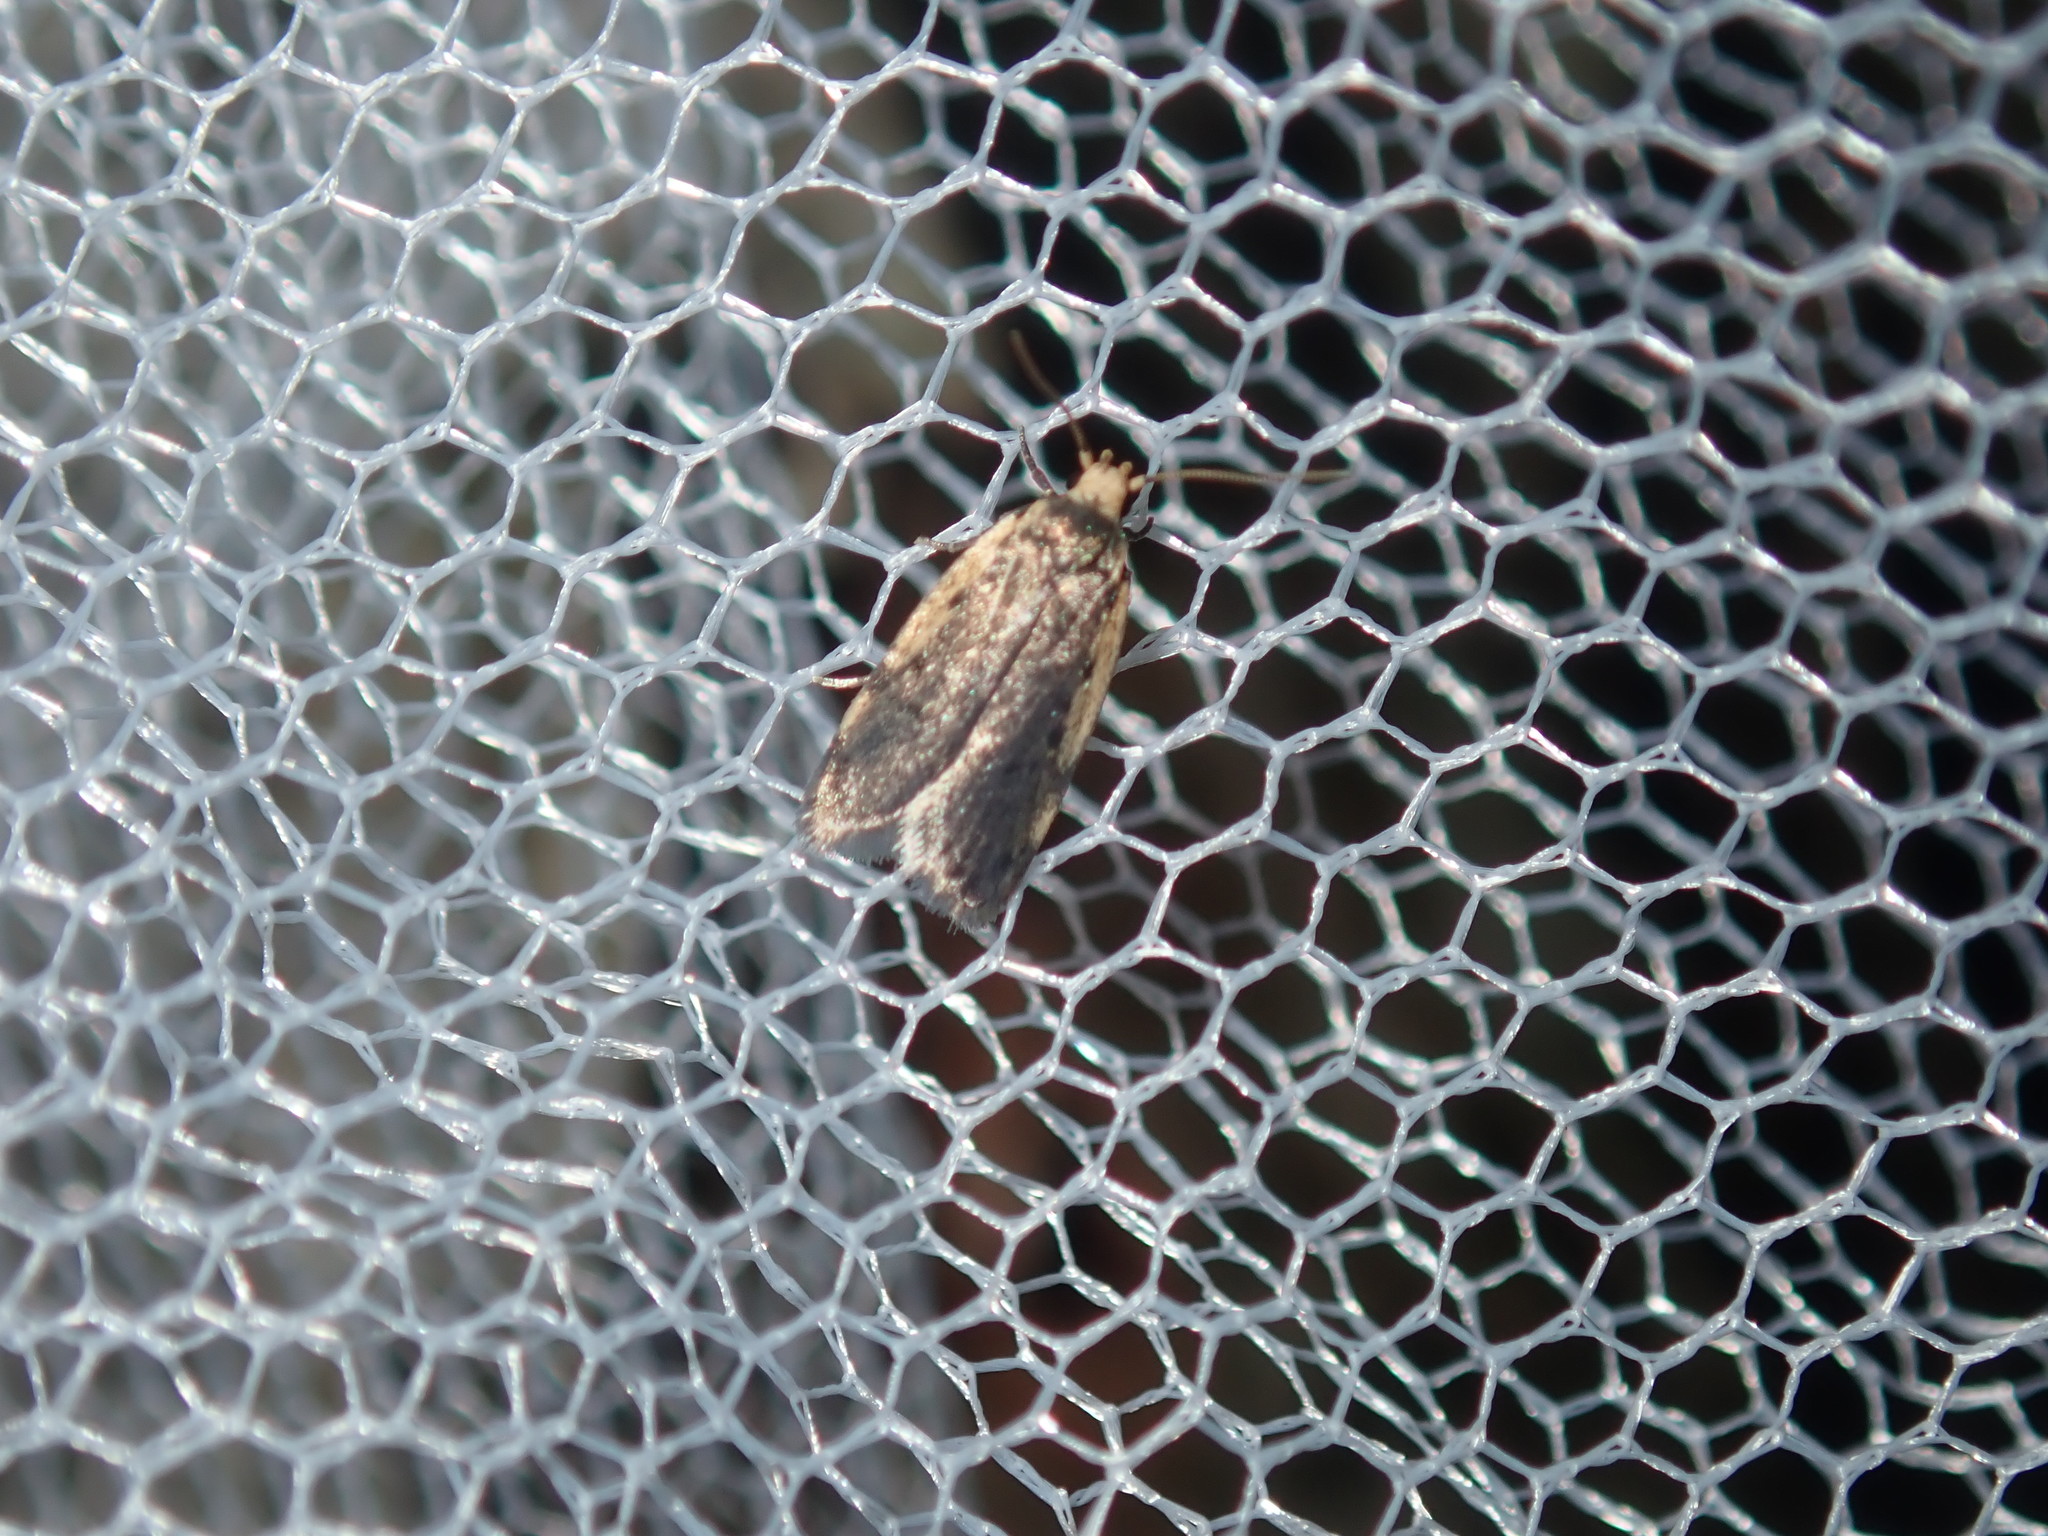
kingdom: Animalia
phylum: Arthropoda
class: Insecta
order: Lepidoptera
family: Oecophoridae
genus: Hoplostega
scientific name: Hoplostega ochroma
